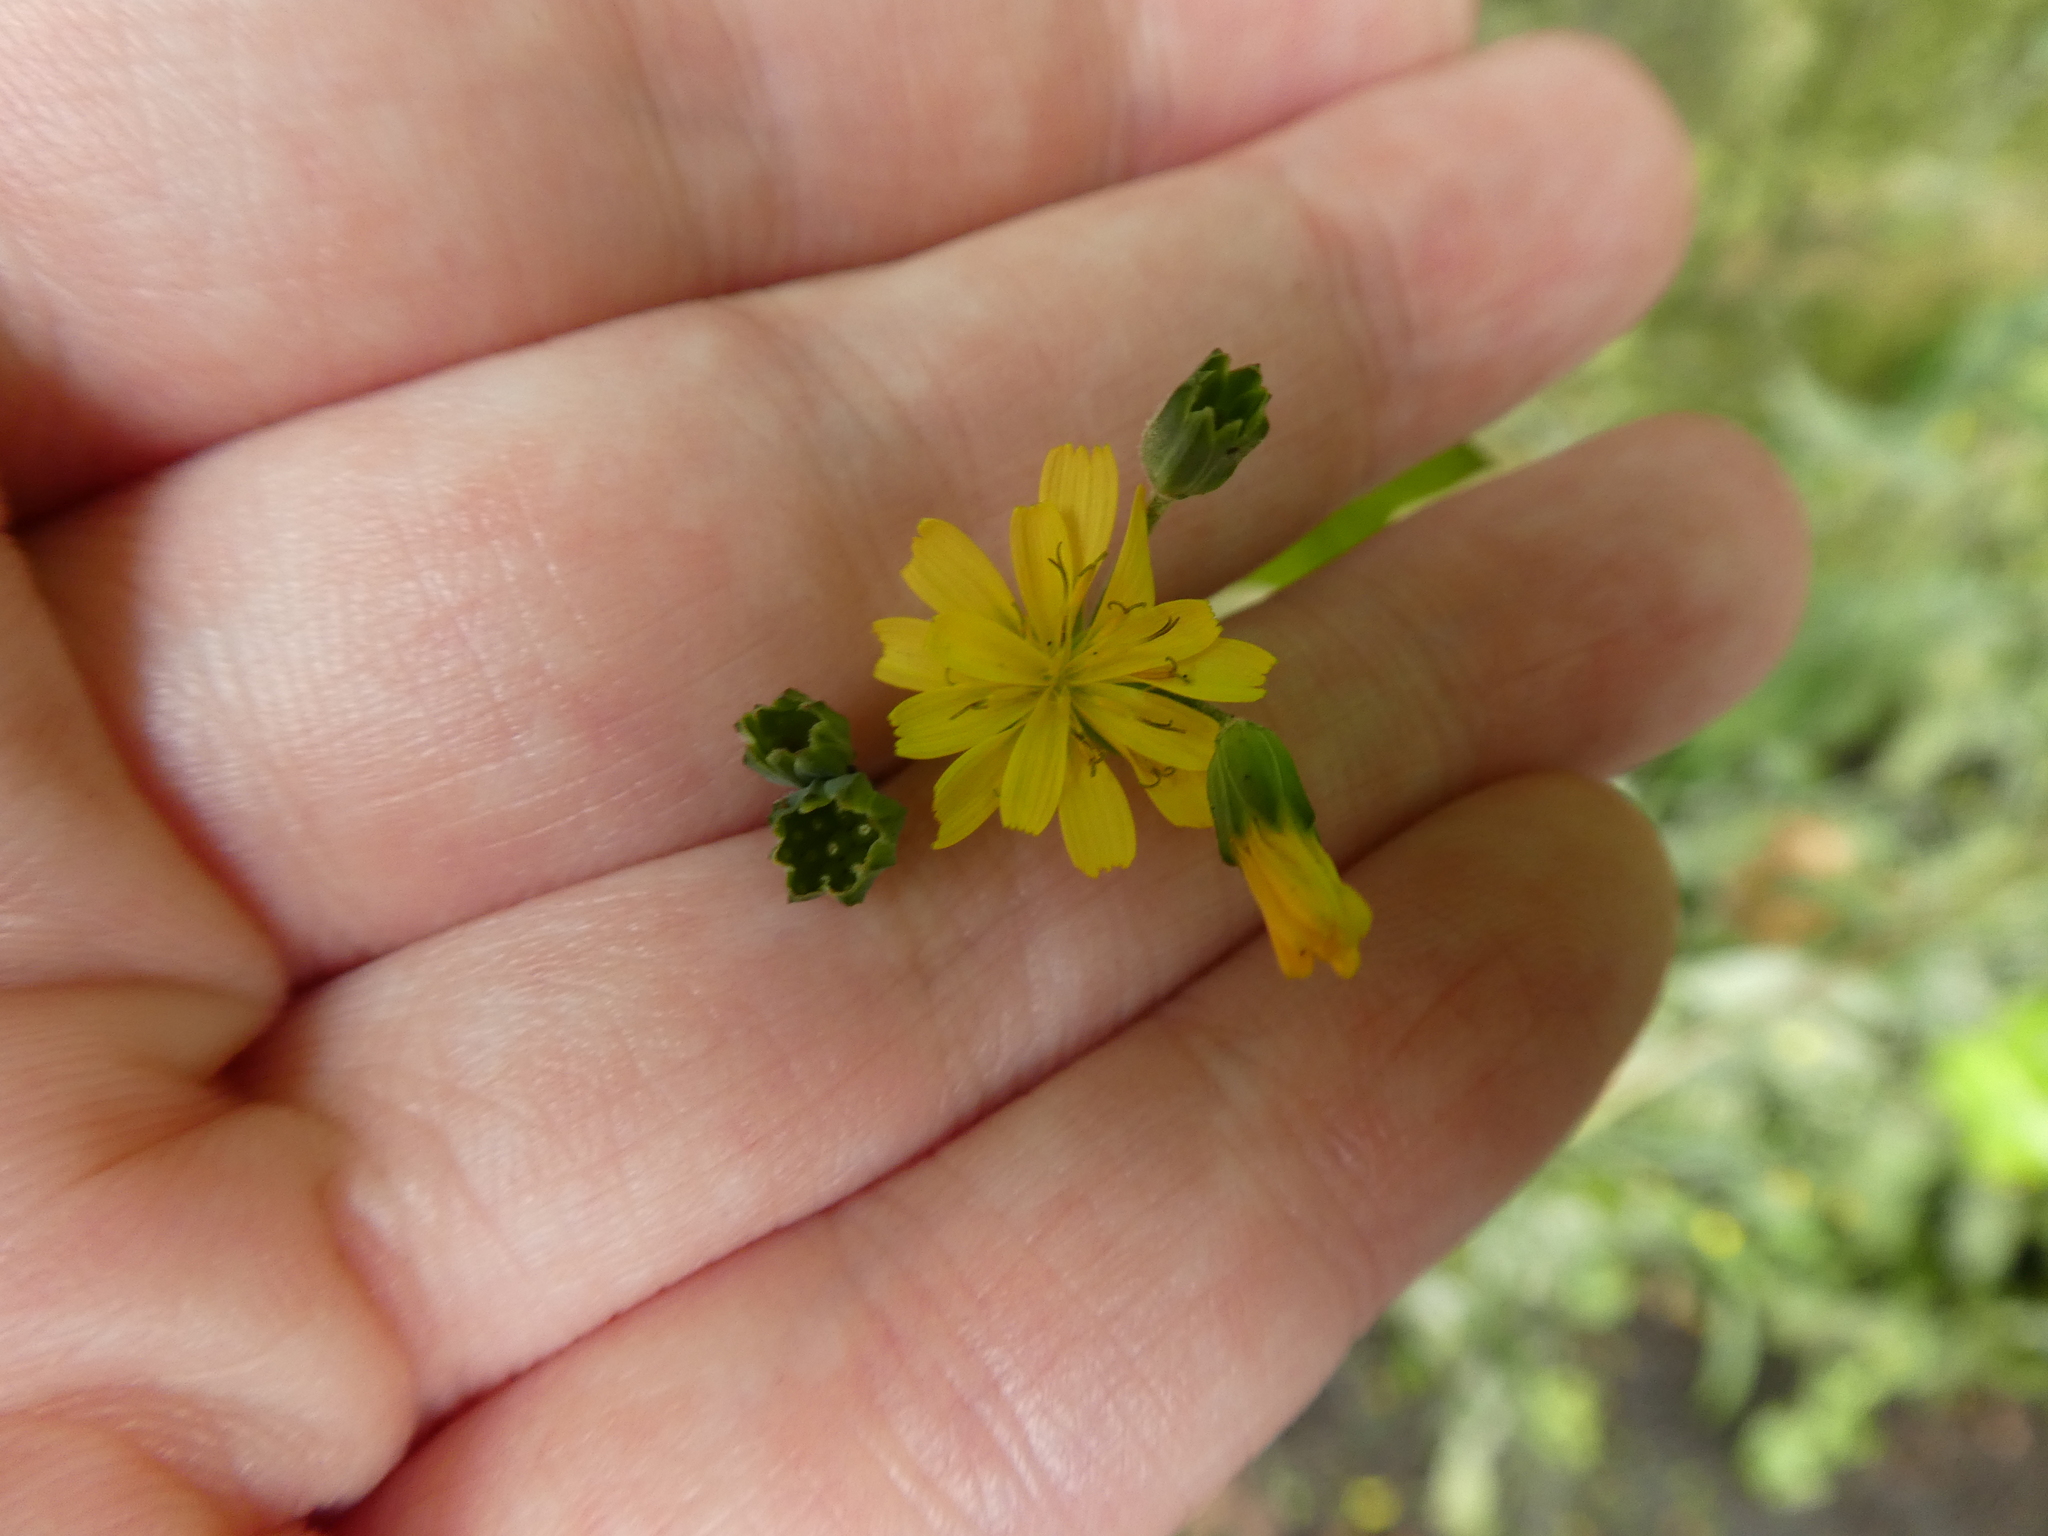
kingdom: Plantae
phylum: Tracheophyta
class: Magnoliopsida
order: Asterales
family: Asteraceae
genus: Lapsana
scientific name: Lapsana communis
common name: Nipplewort
